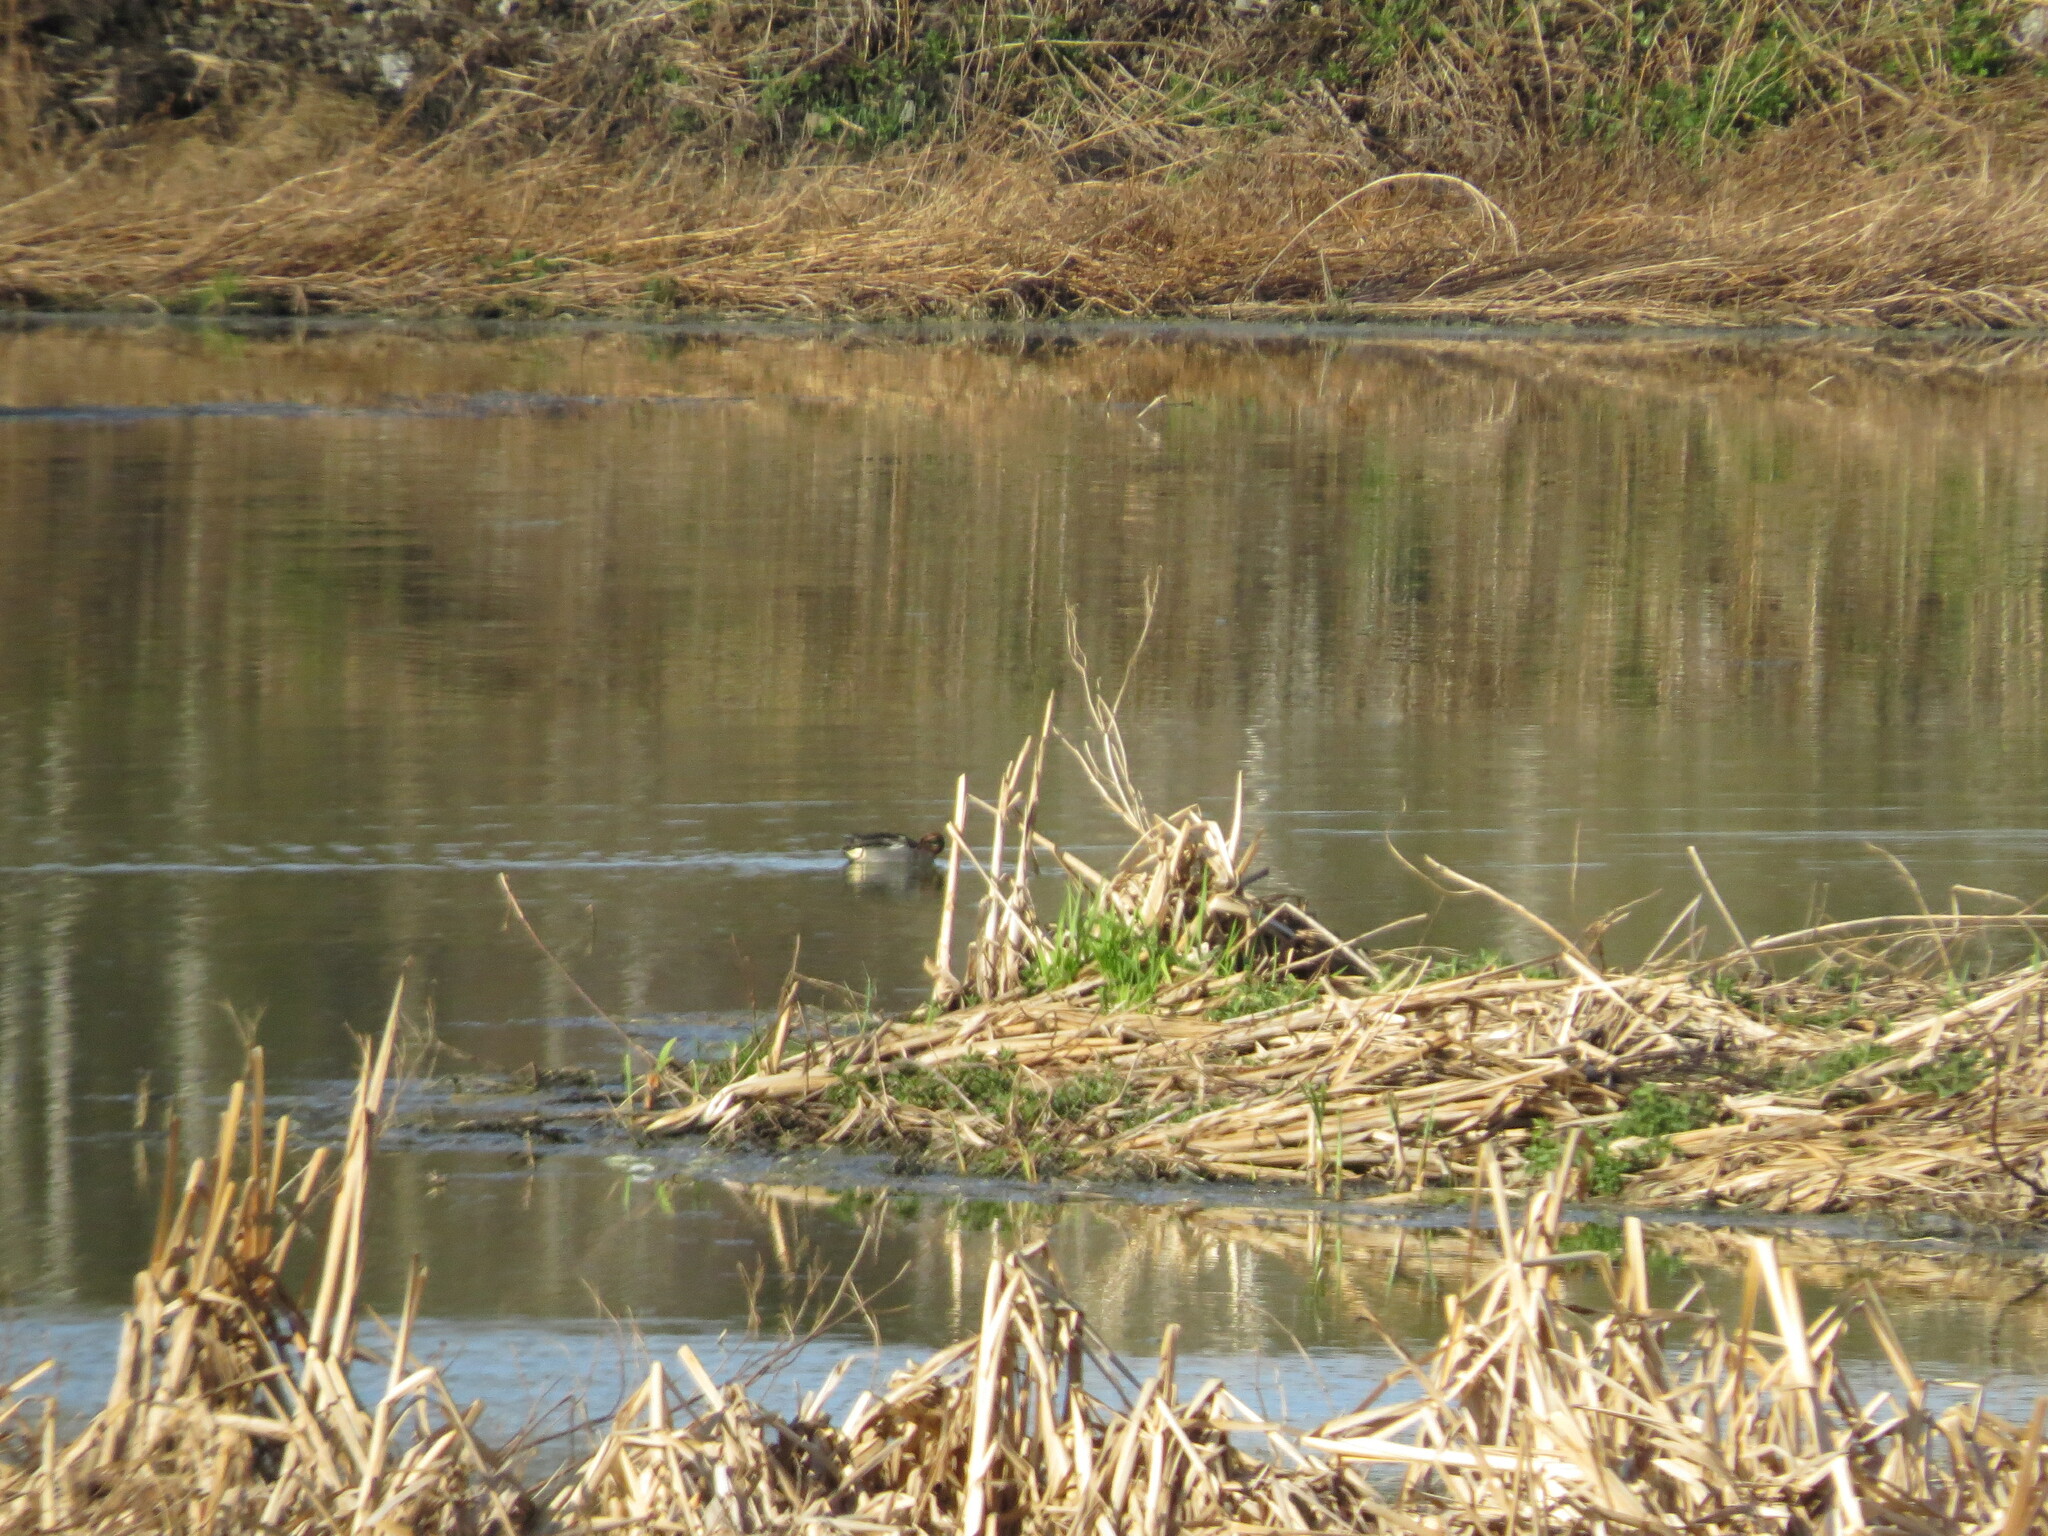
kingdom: Animalia
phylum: Chordata
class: Aves
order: Anseriformes
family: Anatidae
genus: Anas
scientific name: Anas crecca
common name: Eurasian teal
